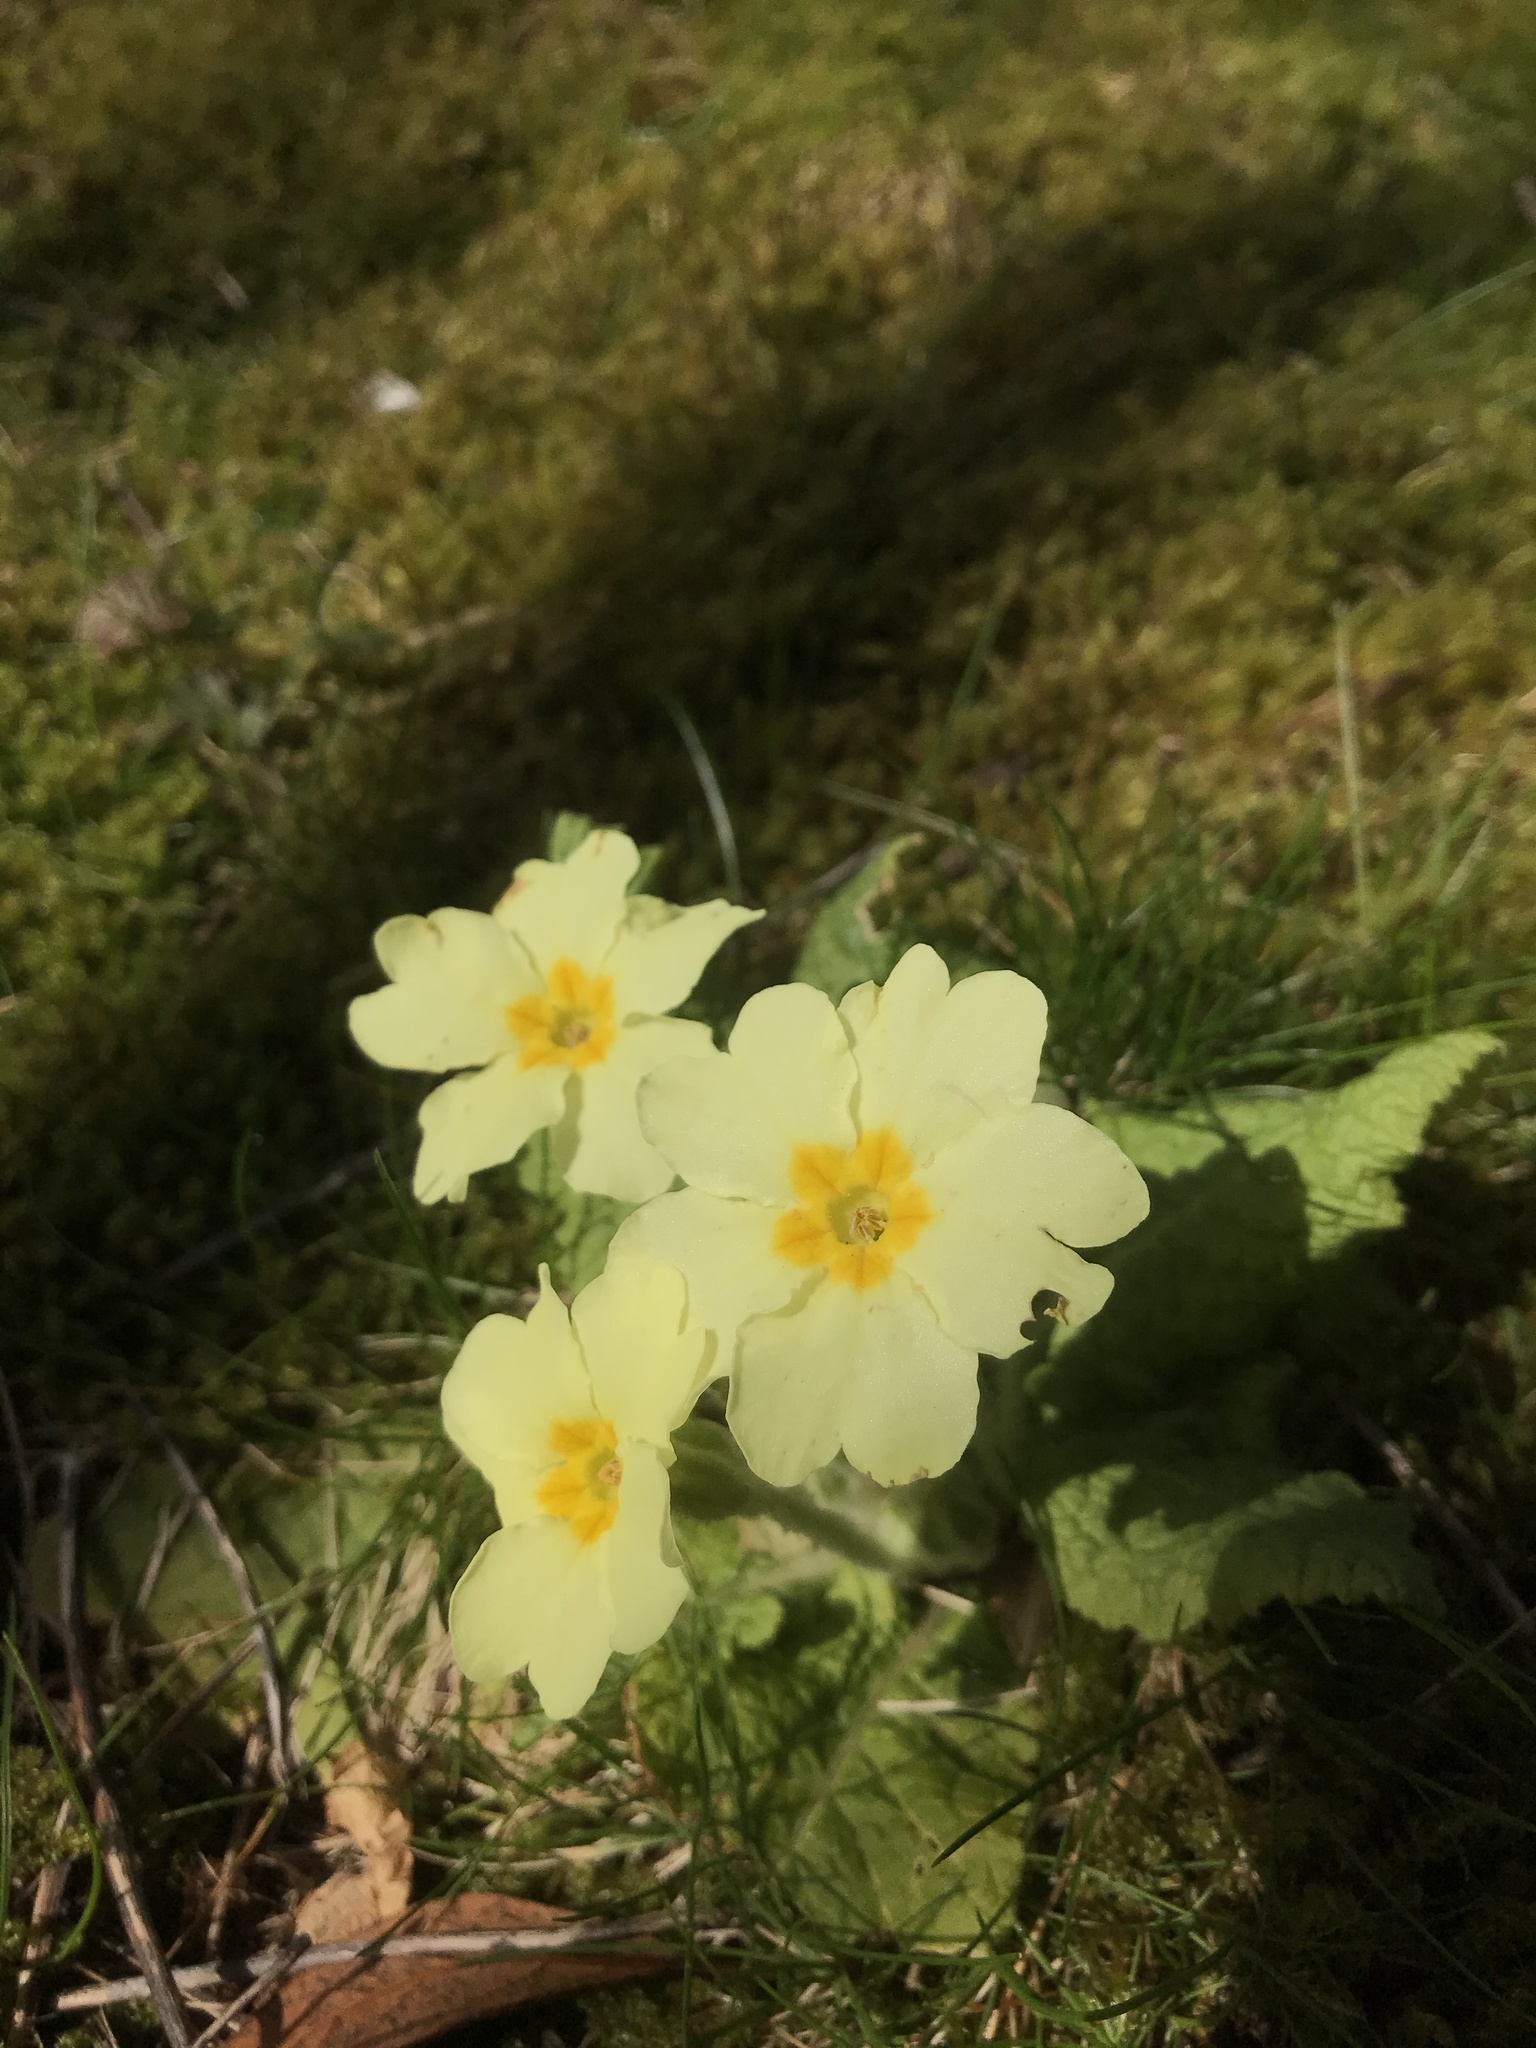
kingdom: Plantae
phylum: Tracheophyta
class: Magnoliopsida
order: Ericales
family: Primulaceae
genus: Primula
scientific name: Primula vulgaris
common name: Primrose
